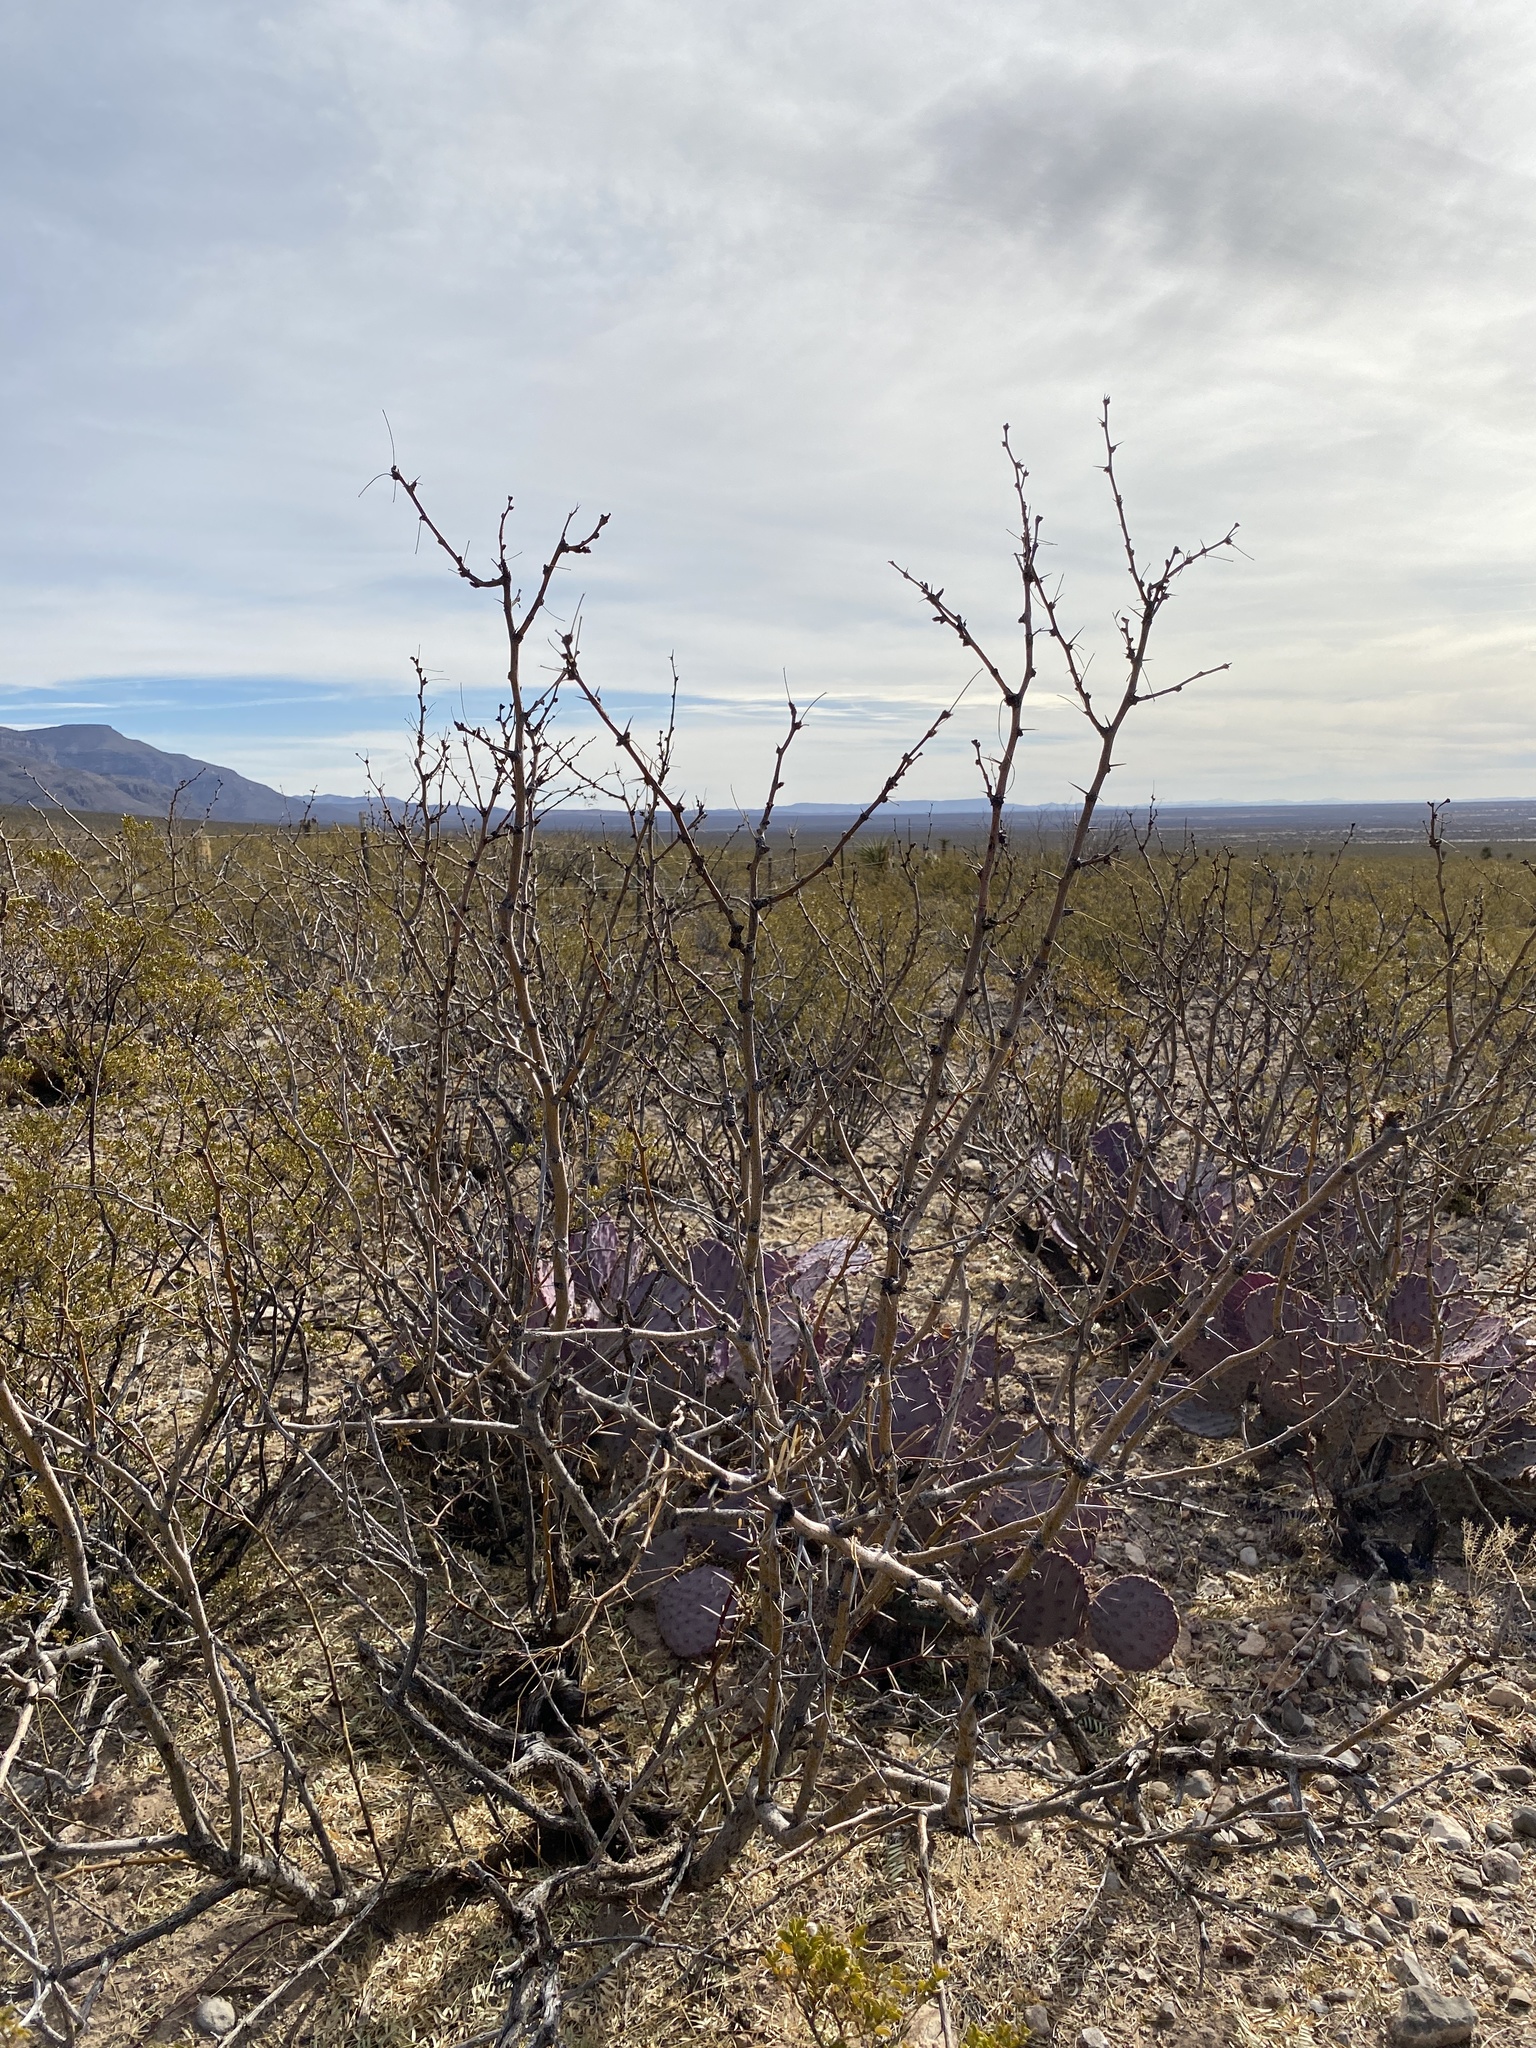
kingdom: Plantae
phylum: Tracheophyta
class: Magnoliopsida
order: Fabales
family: Fabaceae
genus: Prosopis
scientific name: Prosopis glandulosa
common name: Honey mesquite
